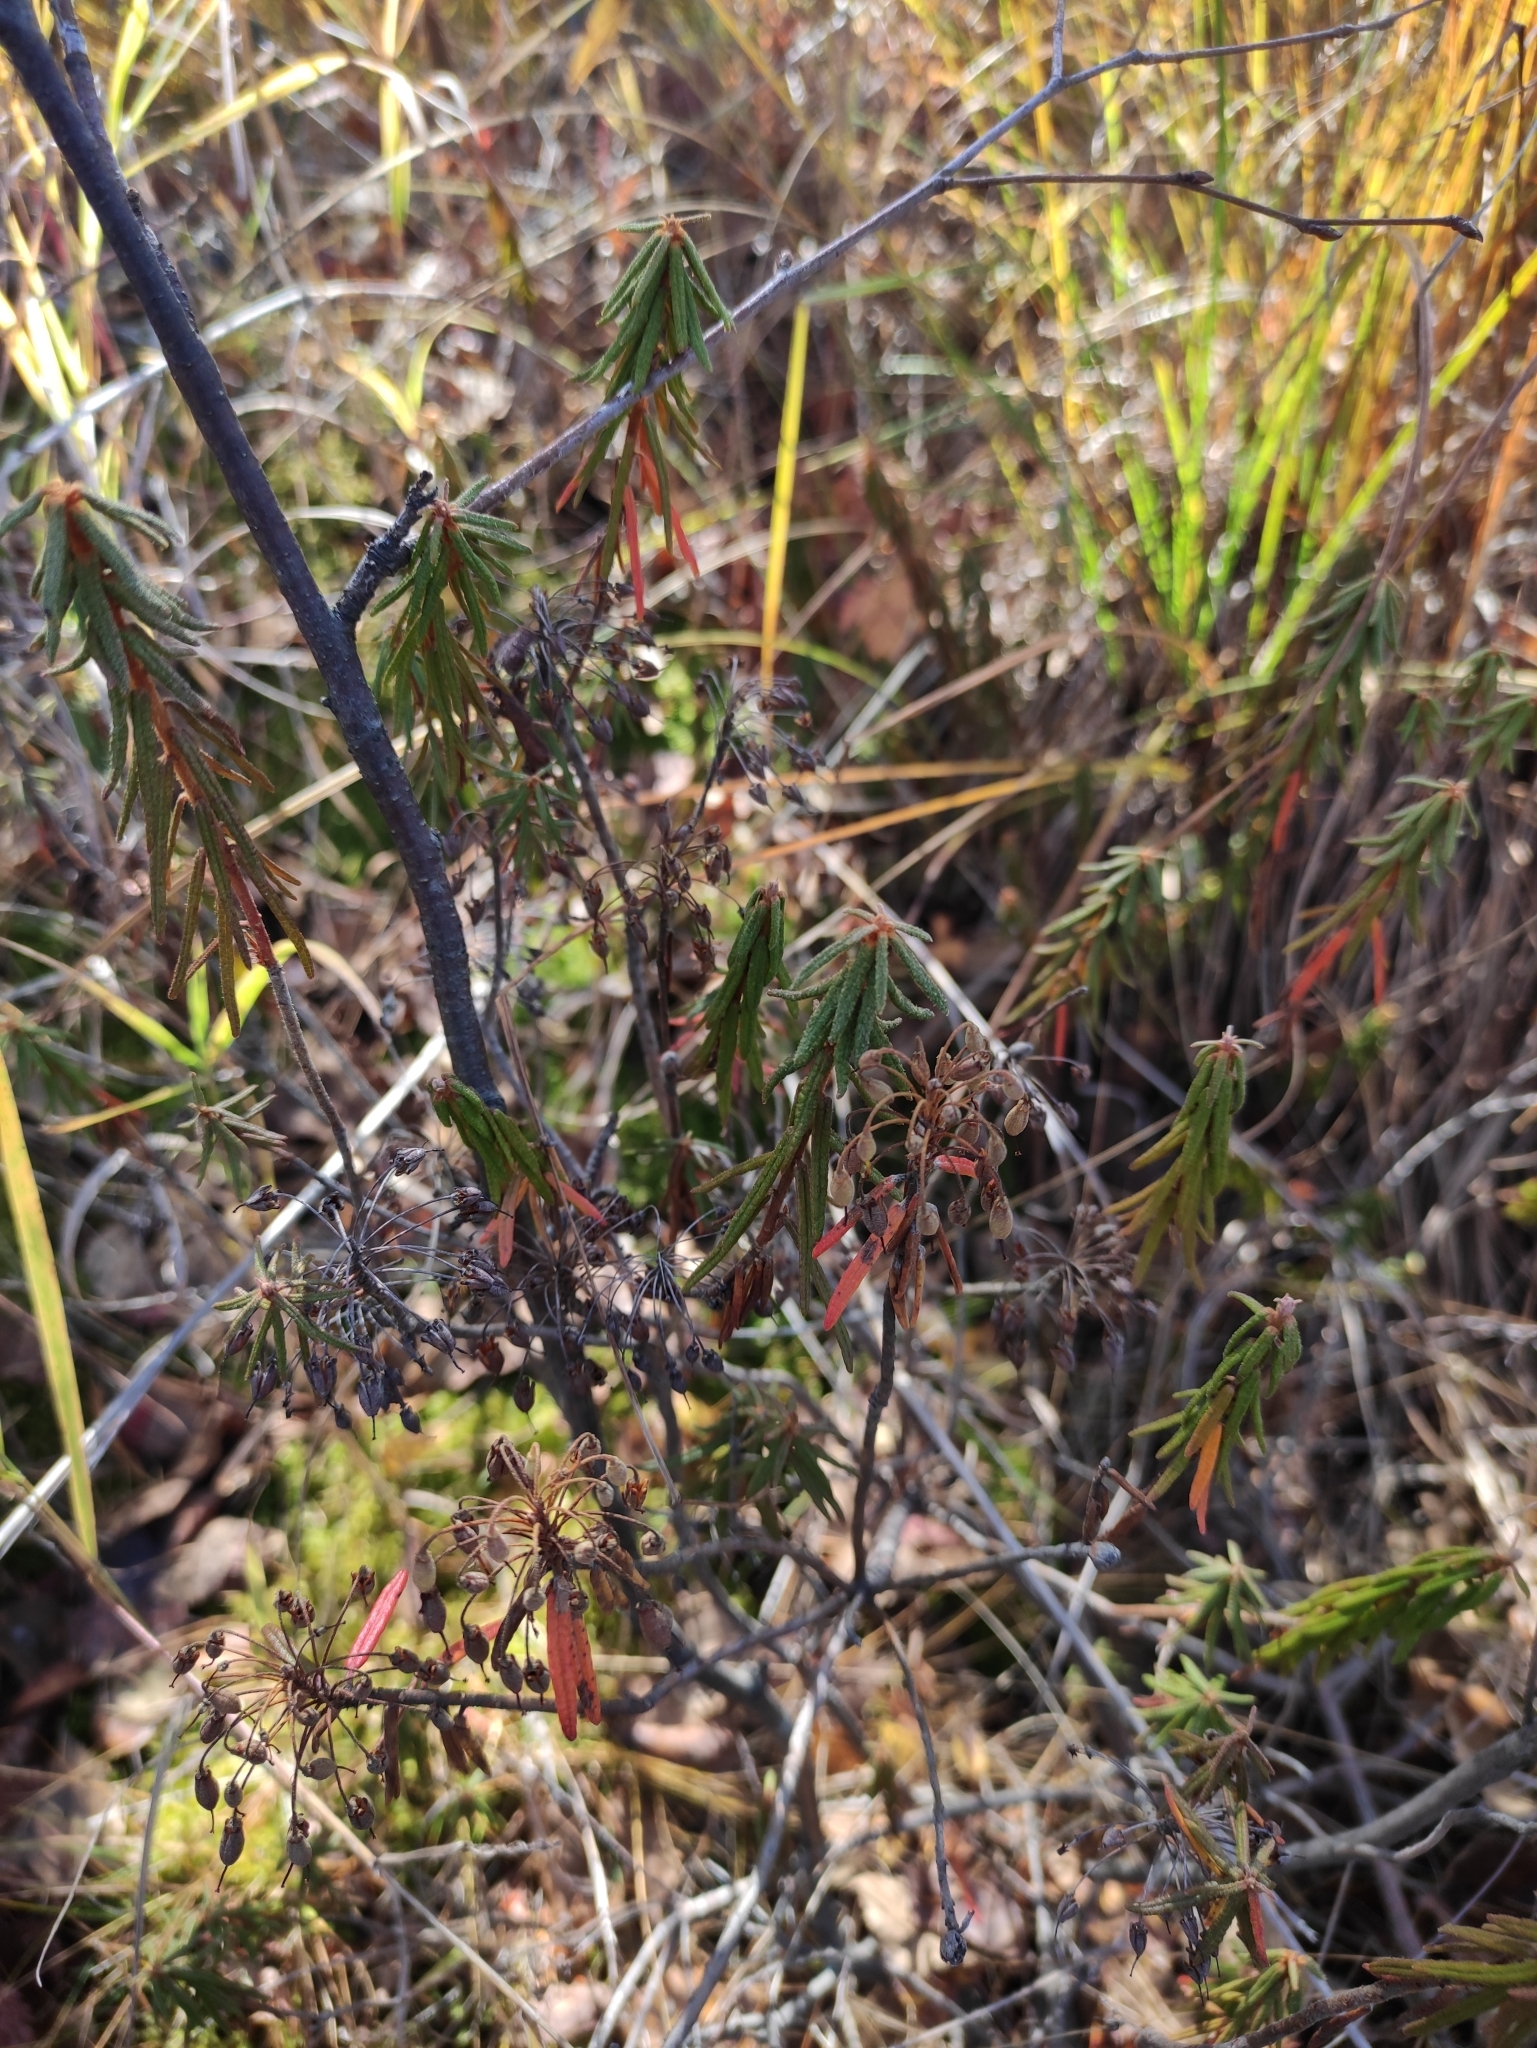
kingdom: Plantae
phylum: Tracheophyta
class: Magnoliopsida
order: Ericales
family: Ericaceae
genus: Rhododendron
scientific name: Rhododendron tomentosum
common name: Marsh labrador tea
